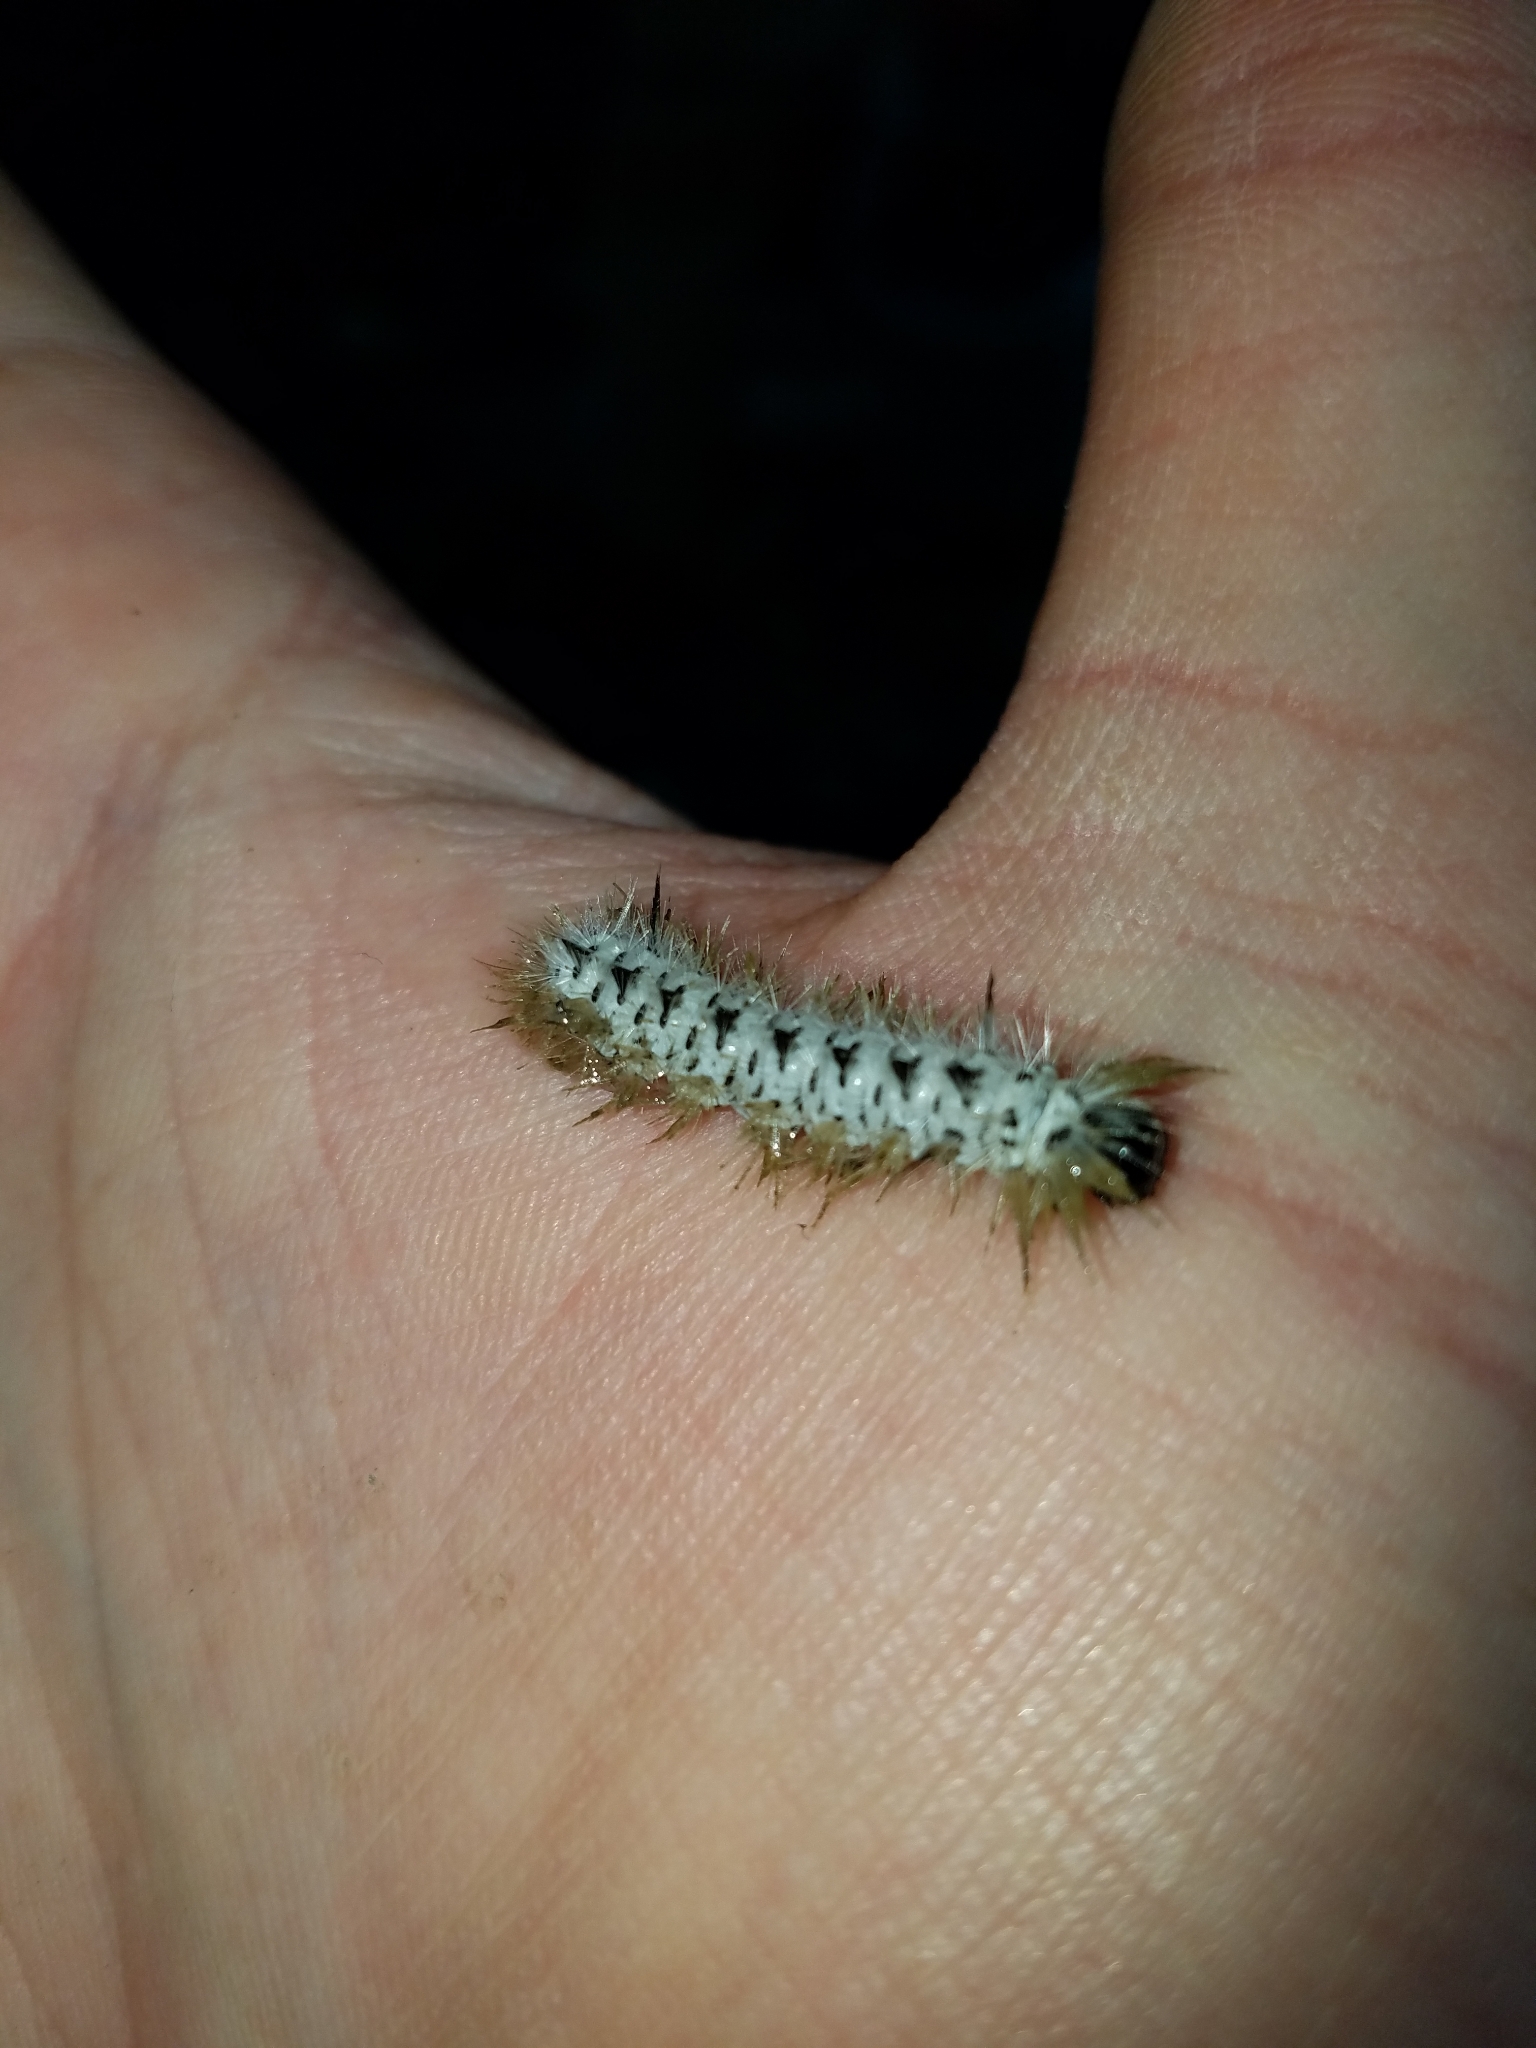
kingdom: Animalia
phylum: Arthropoda
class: Insecta
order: Lepidoptera
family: Erebidae
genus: Lophocampa
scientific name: Lophocampa caryae
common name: Hickory tussock moth
